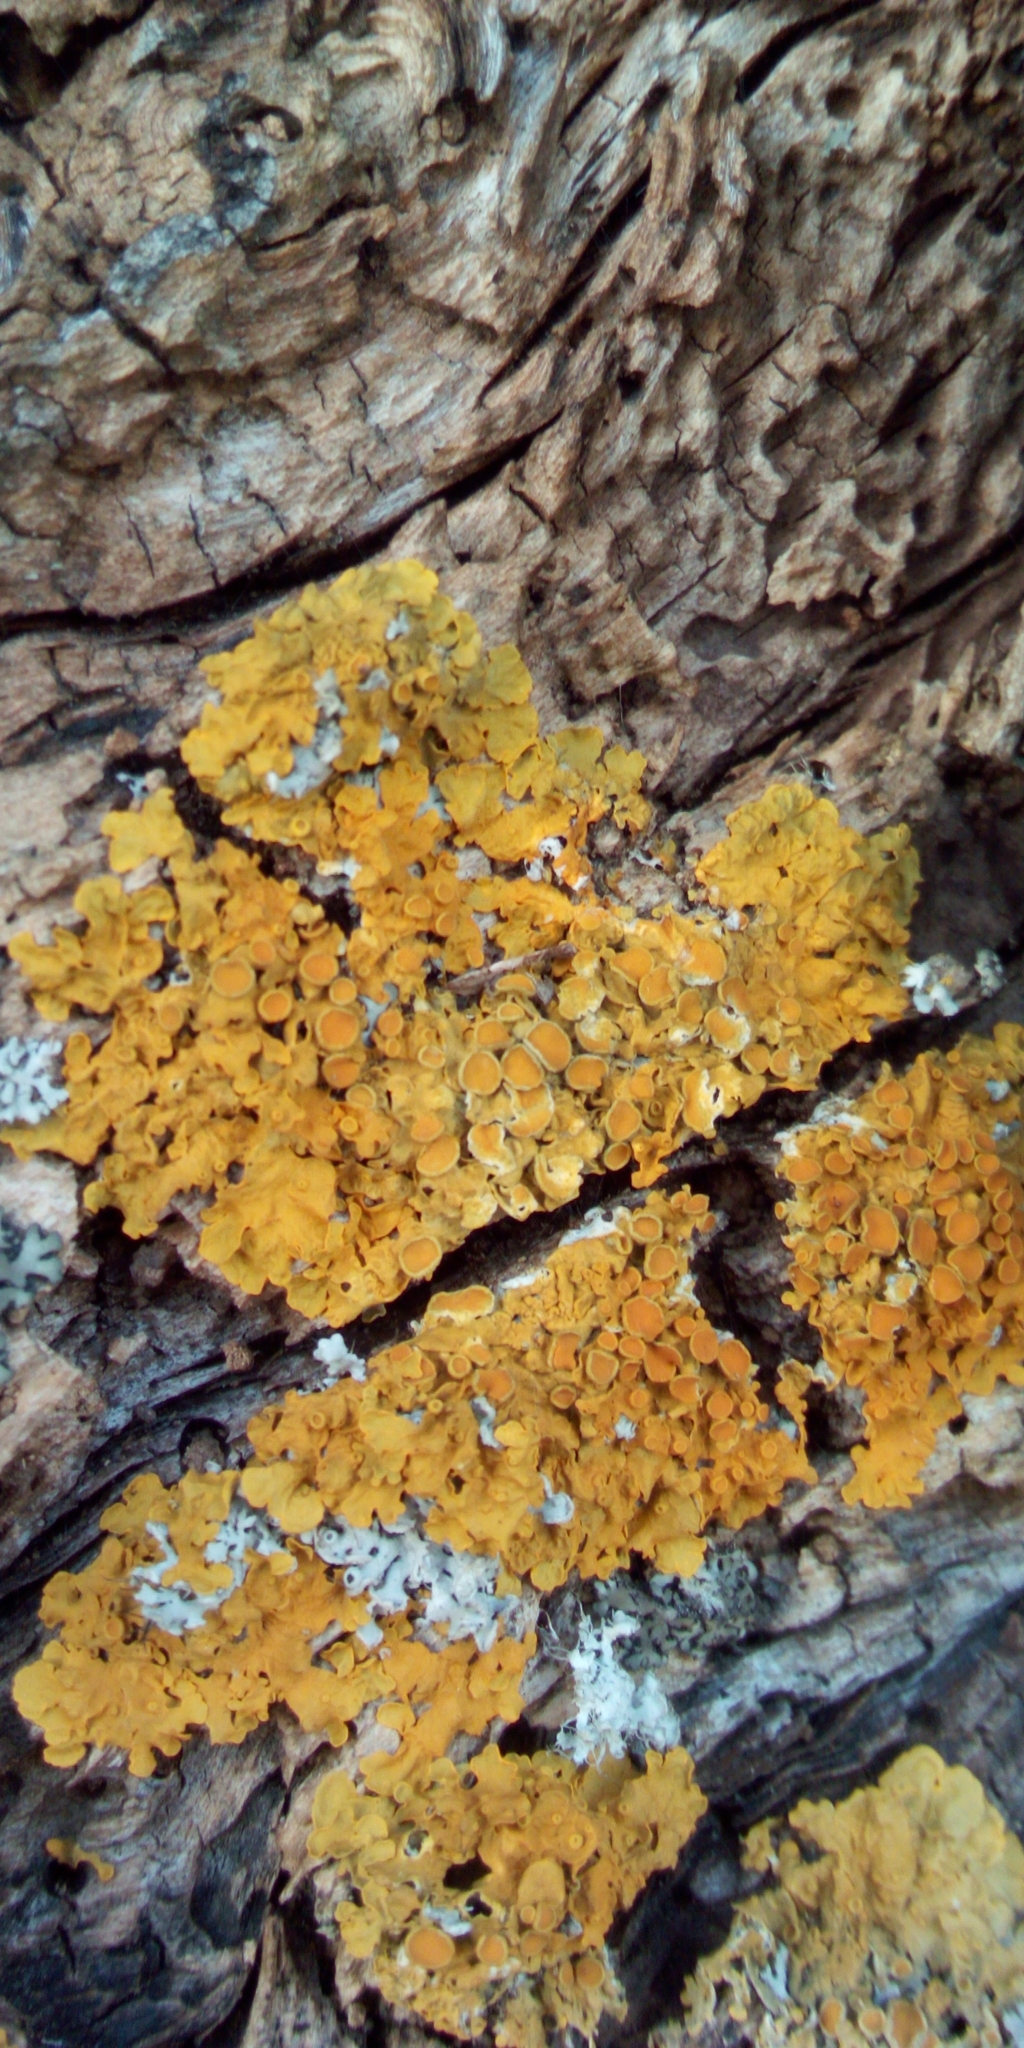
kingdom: Fungi
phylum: Ascomycota
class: Lecanoromycetes
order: Teloschistales
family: Teloschistaceae
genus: Xanthoria
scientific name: Xanthoria parietina
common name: Common orange lichen
